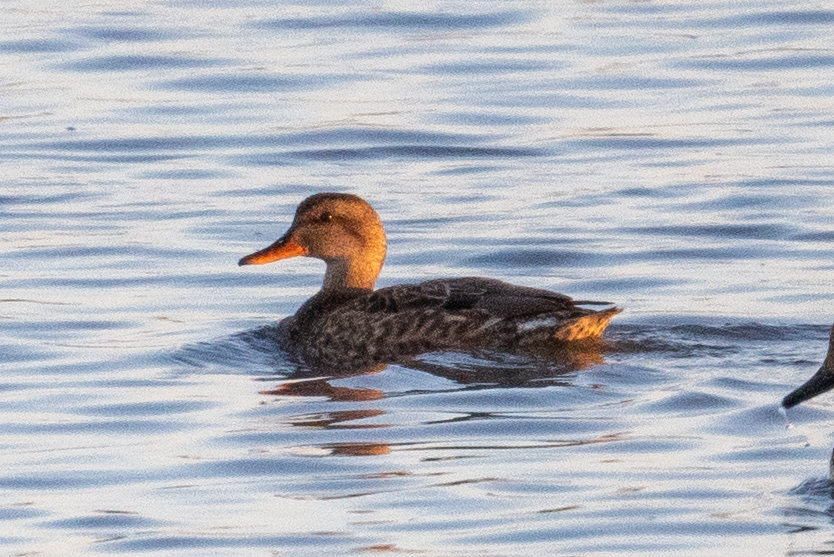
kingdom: Animalia
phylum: Chordata
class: Aves
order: Anseriformes
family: Anatidae
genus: Mareca
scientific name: Mareca strepera
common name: Gadwall
